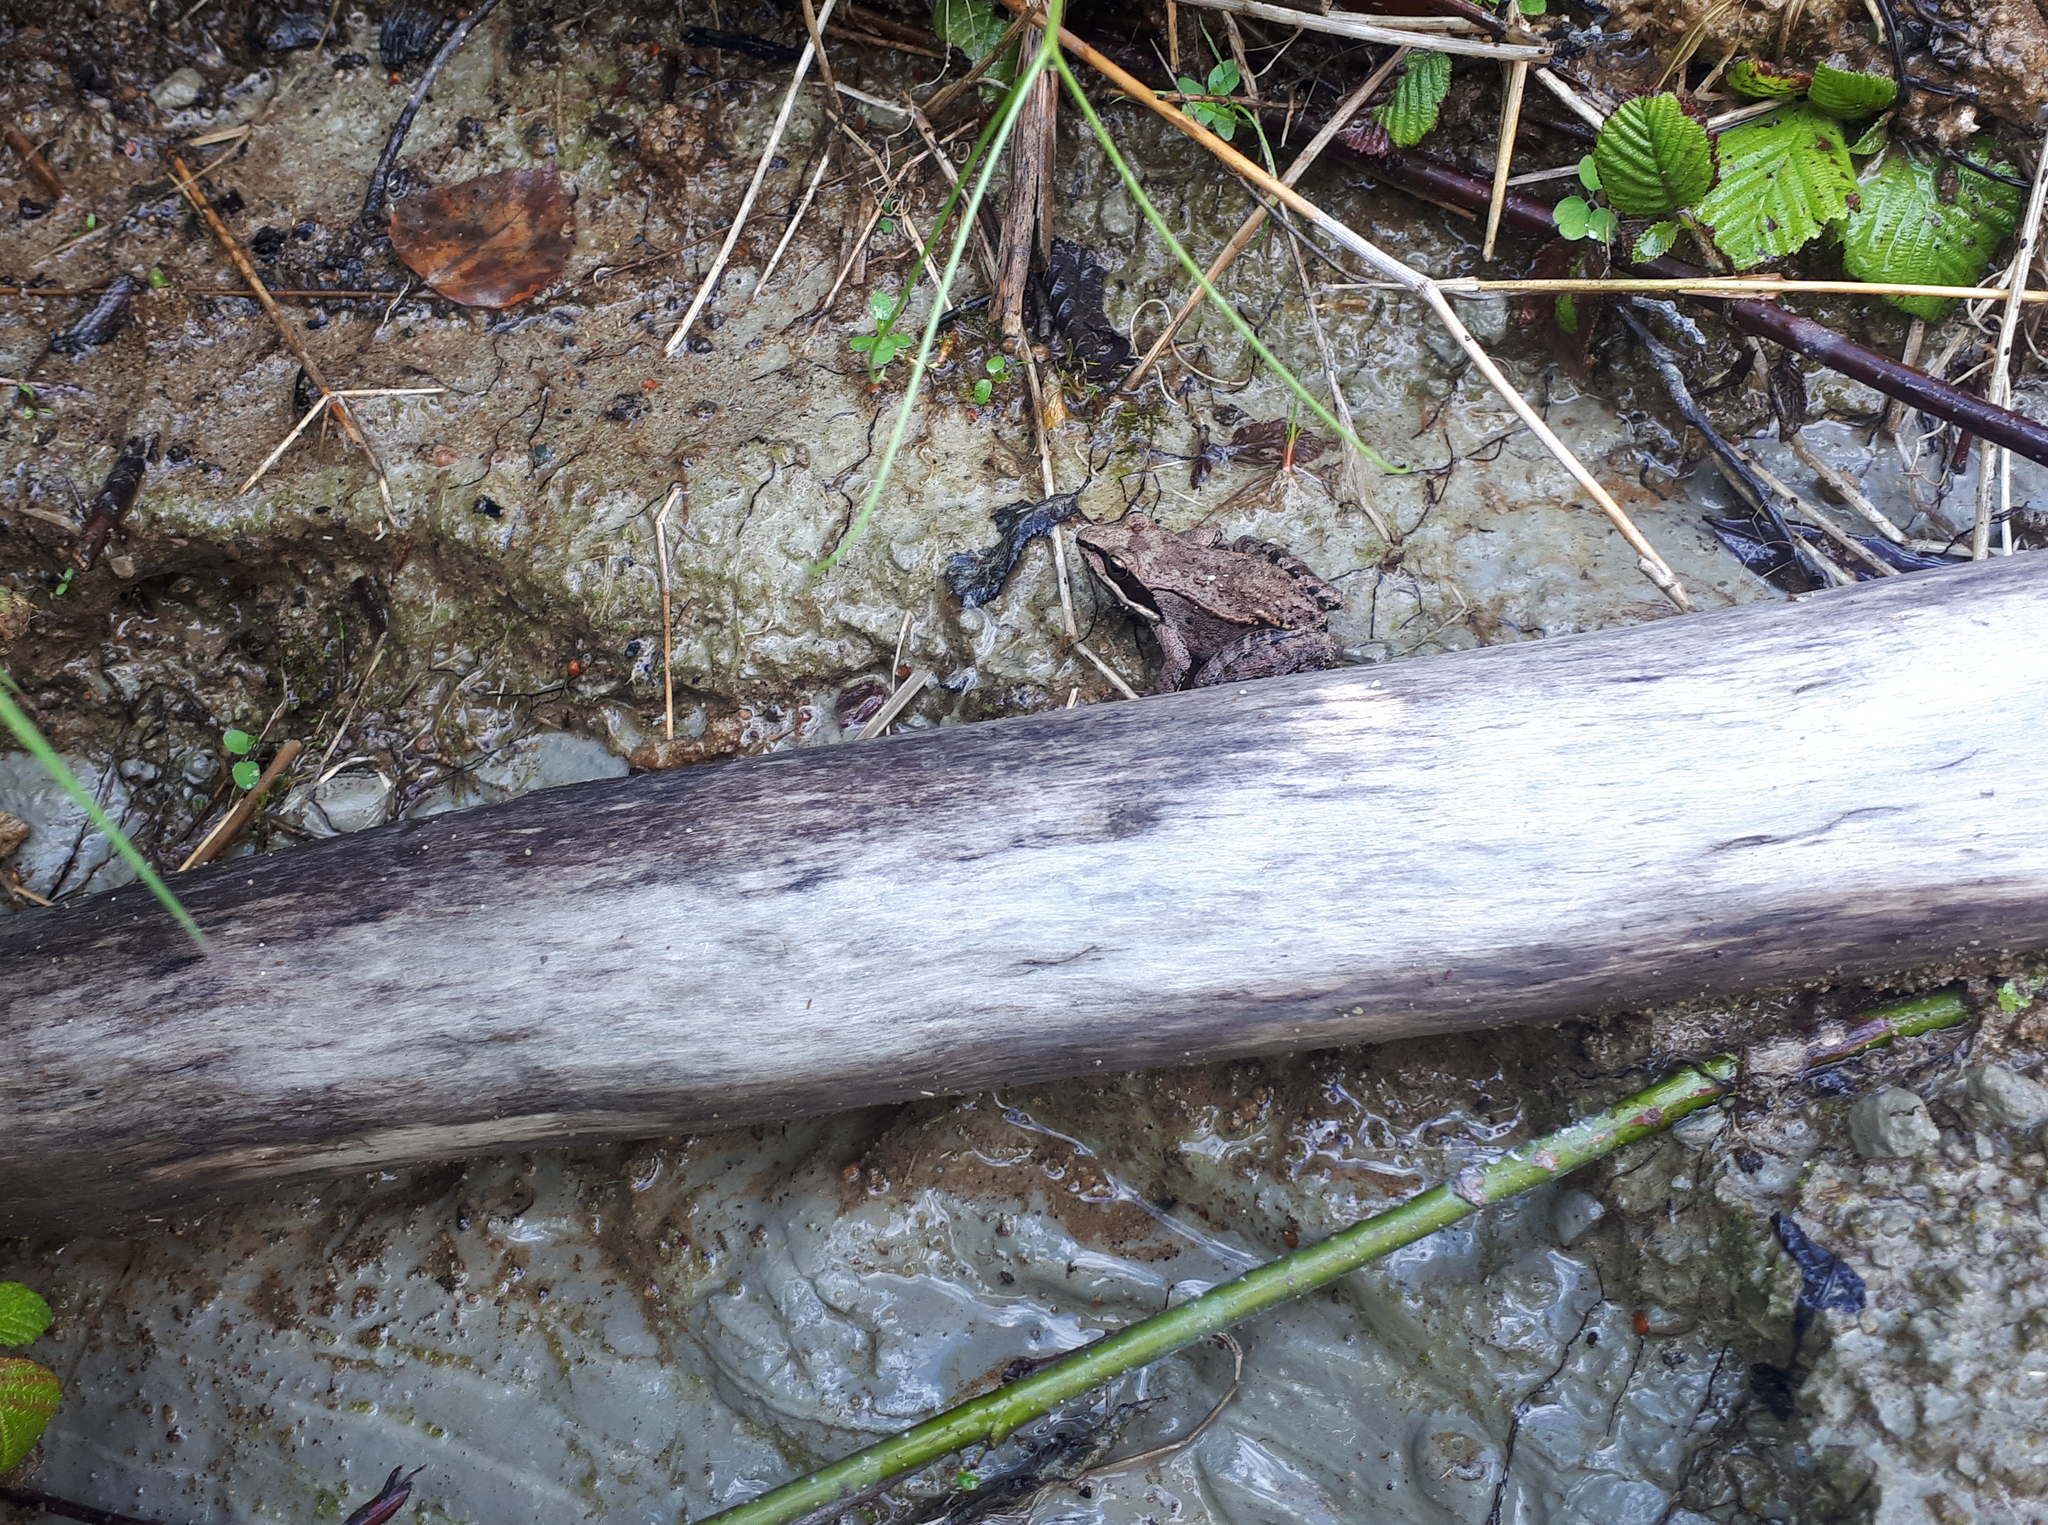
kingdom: Animalia
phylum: Chordata
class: Amphibia
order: Anura
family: Ranidae
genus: Lithobates
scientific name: Lithobates sylvaticus
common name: Wood frog
